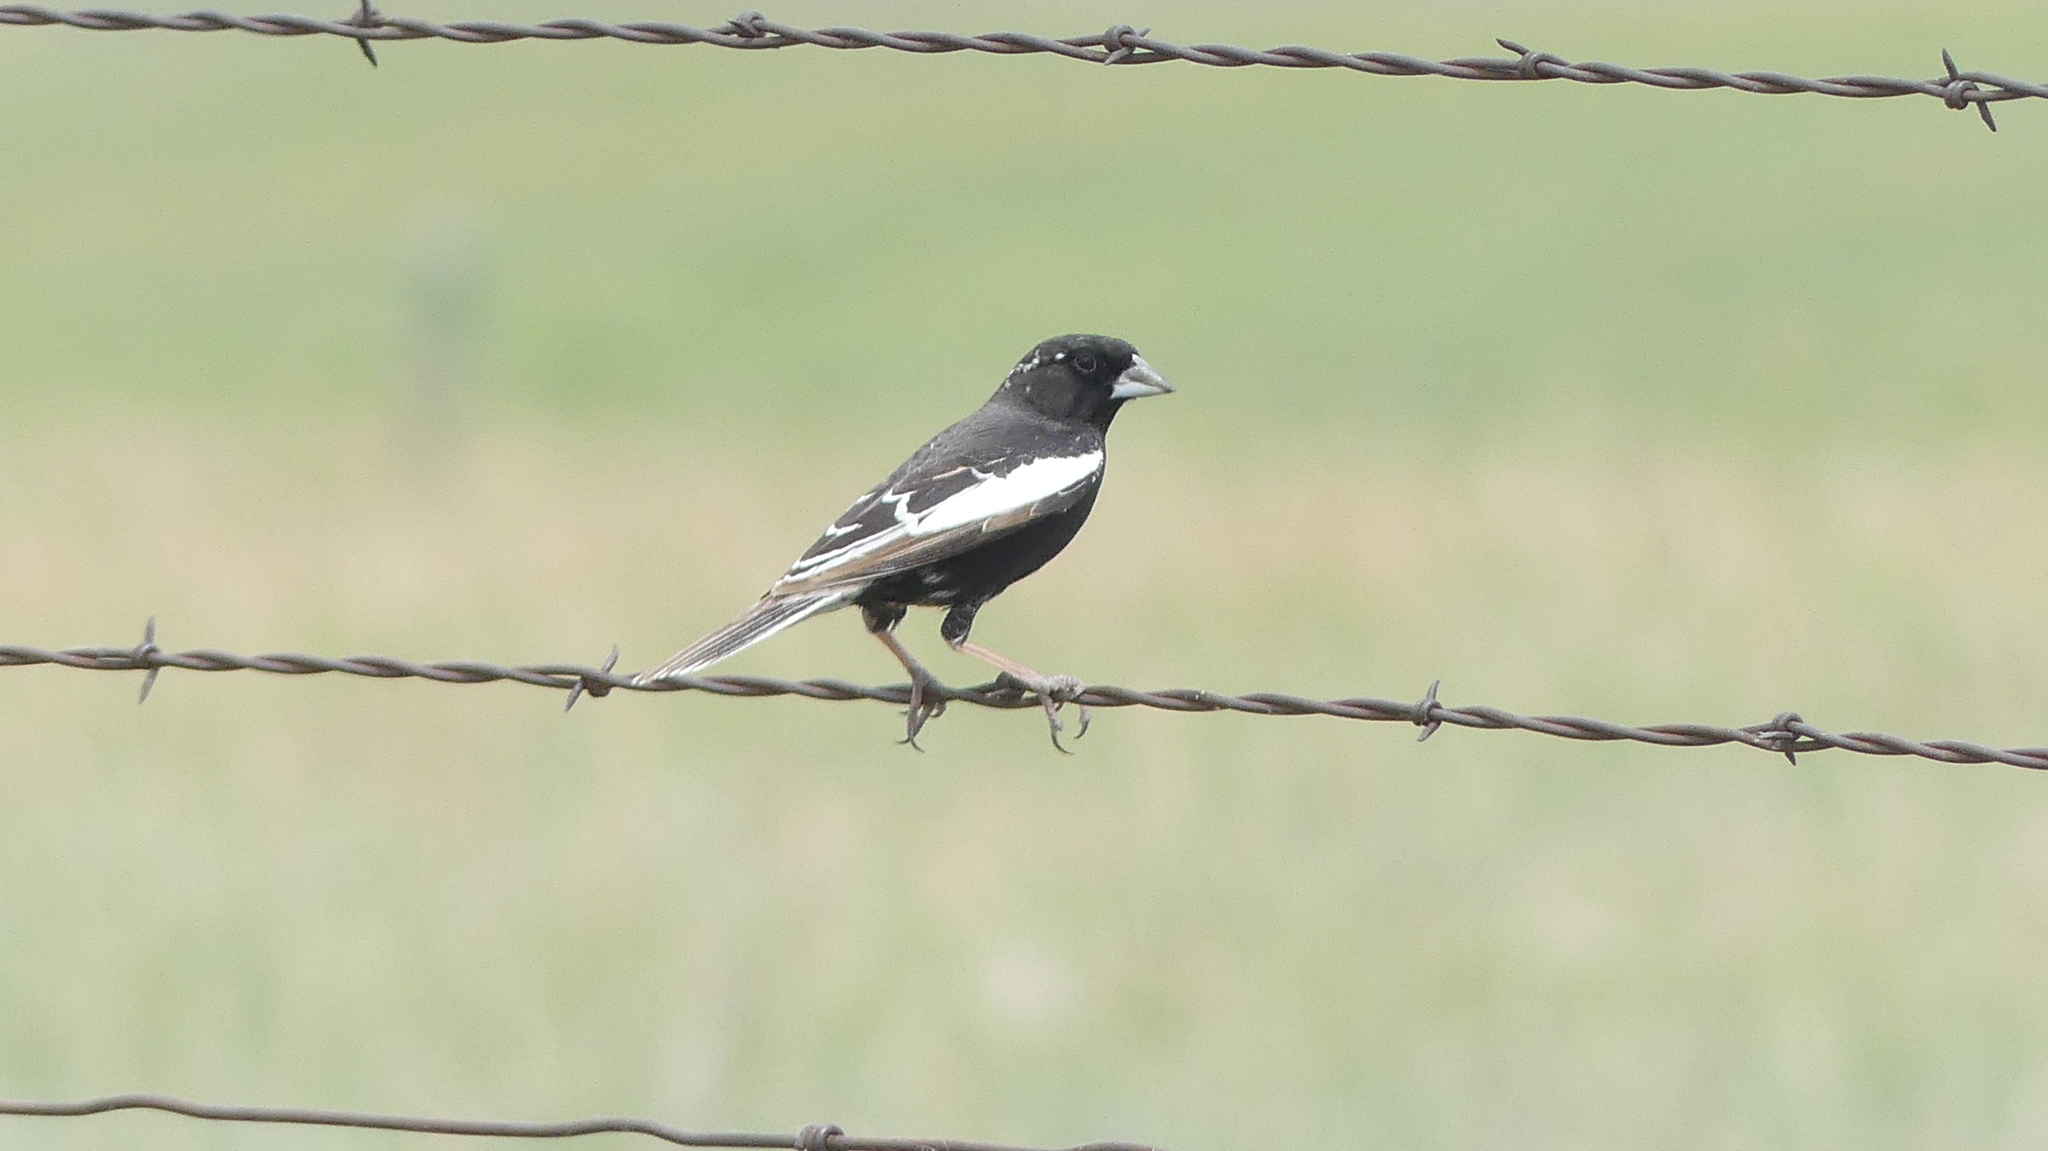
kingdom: Animalia
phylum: Chordata
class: Aves
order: Passeriformes
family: Passerellidae
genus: Calamospiza
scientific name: Calamospiza melanocorys
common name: Lark bunting
